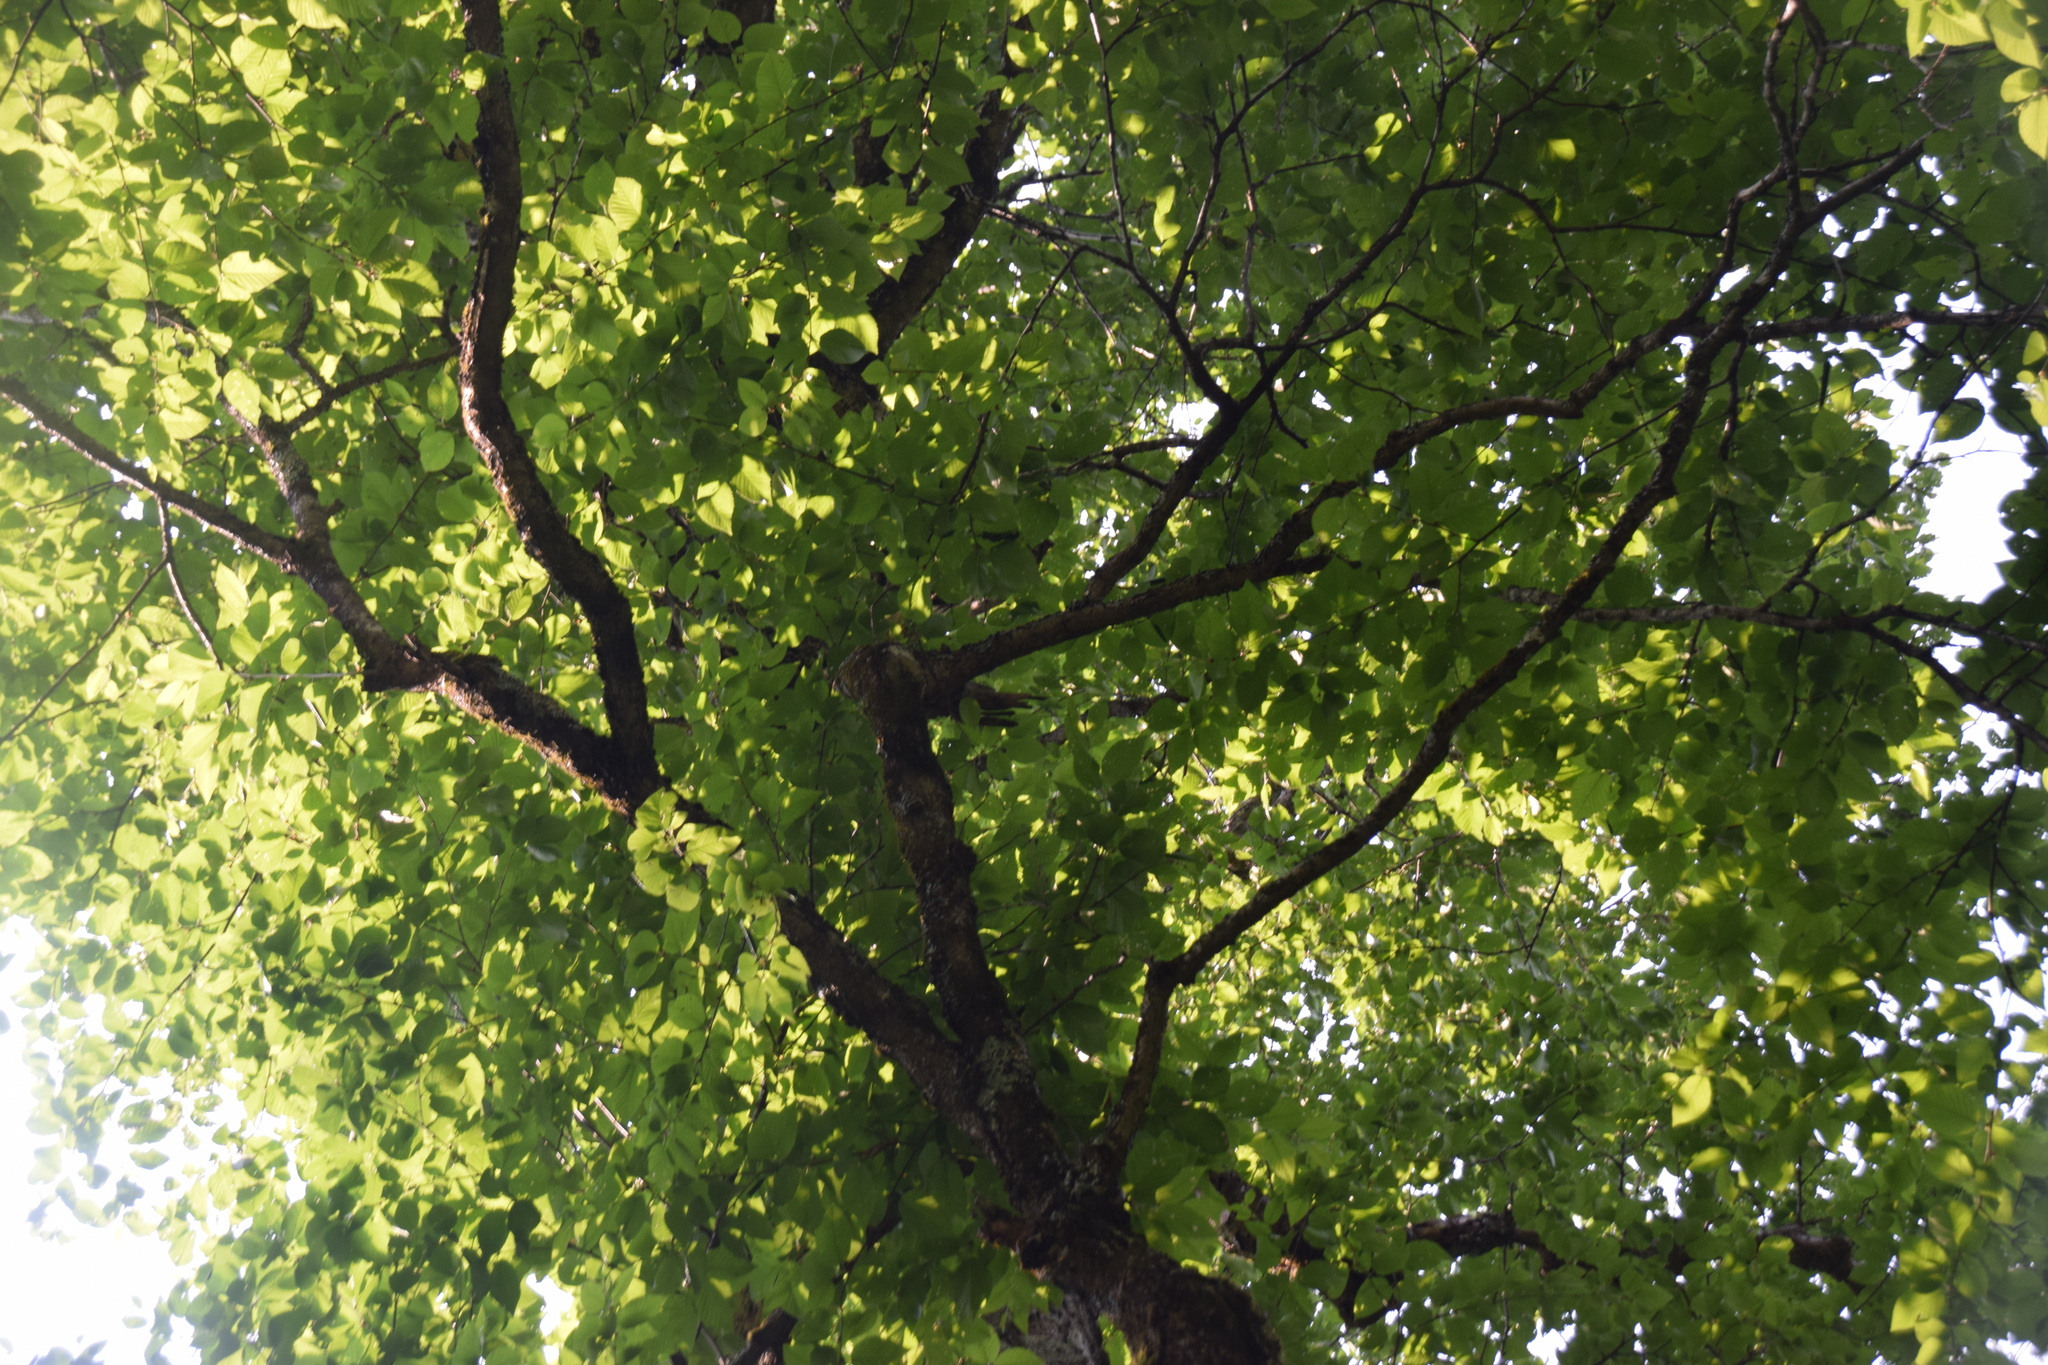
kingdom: Plantae
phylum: Tracheophyta
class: Magnoliopsida
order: Fagales
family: Betulaceae
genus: Betula
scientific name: Betula alleghaniensis
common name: Yellow birch
